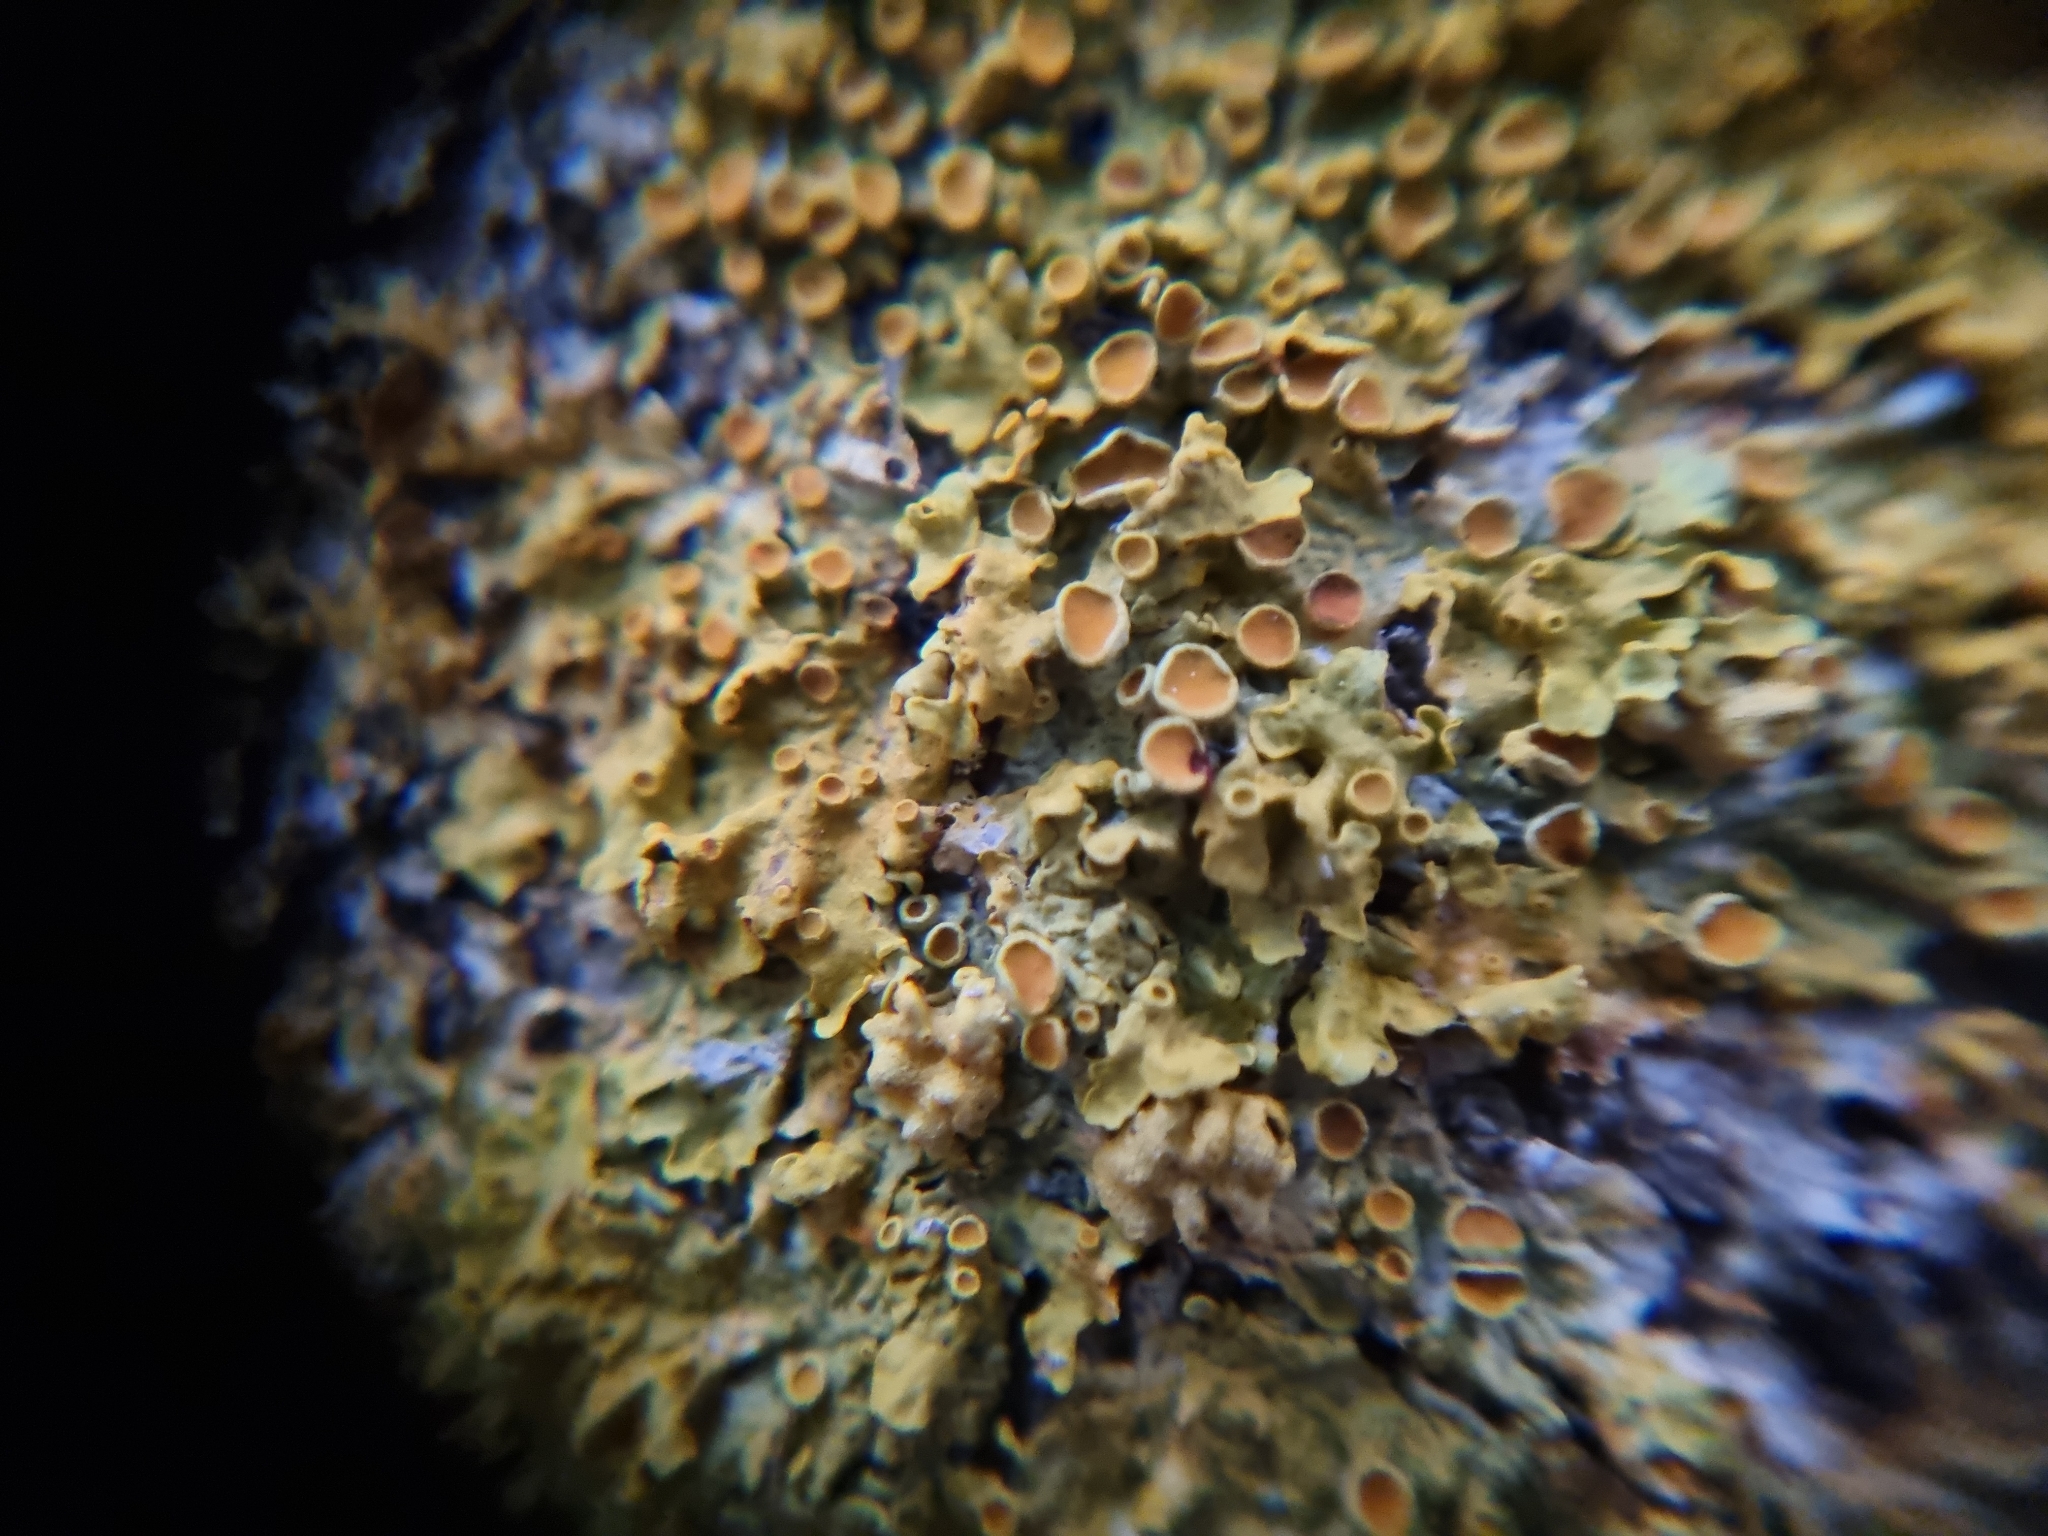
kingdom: Fungi
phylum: Ascomycota
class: Lecanoromycetes
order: Teloschistales
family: Teloschistaceae
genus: Xanthoria
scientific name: Xanthoria parietina
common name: Common orange lichen
